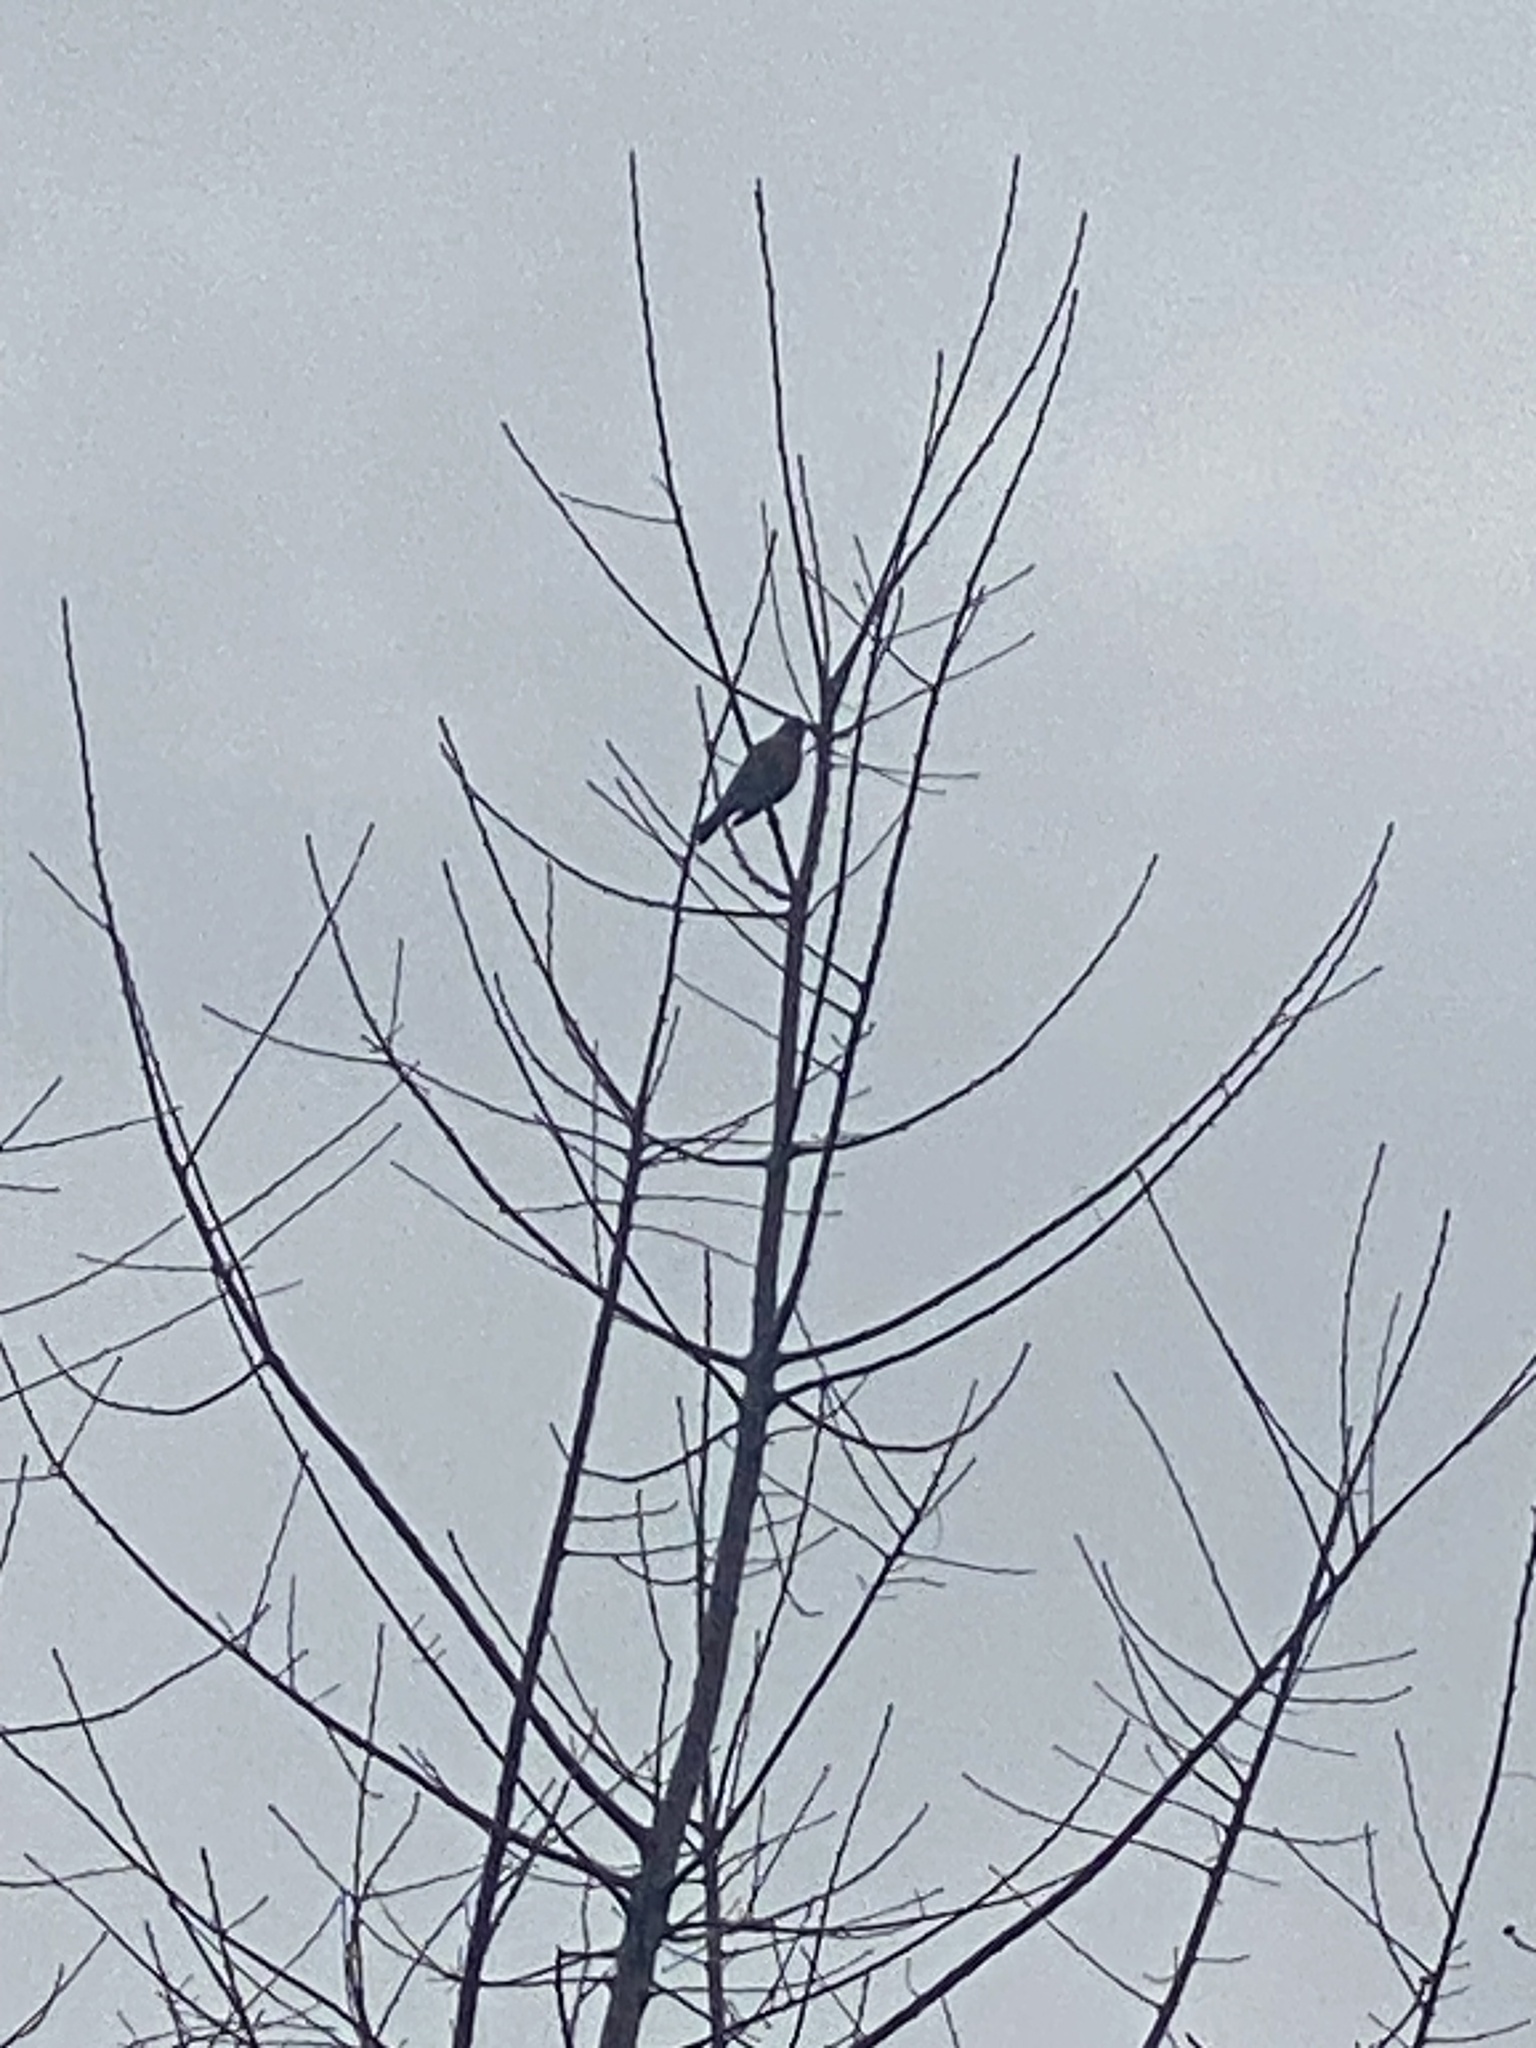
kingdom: Animalia
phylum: Chordata
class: Aves
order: Passeriformes
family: Turdidae
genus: Turdus
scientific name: Turdus migratorius
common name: American robin
